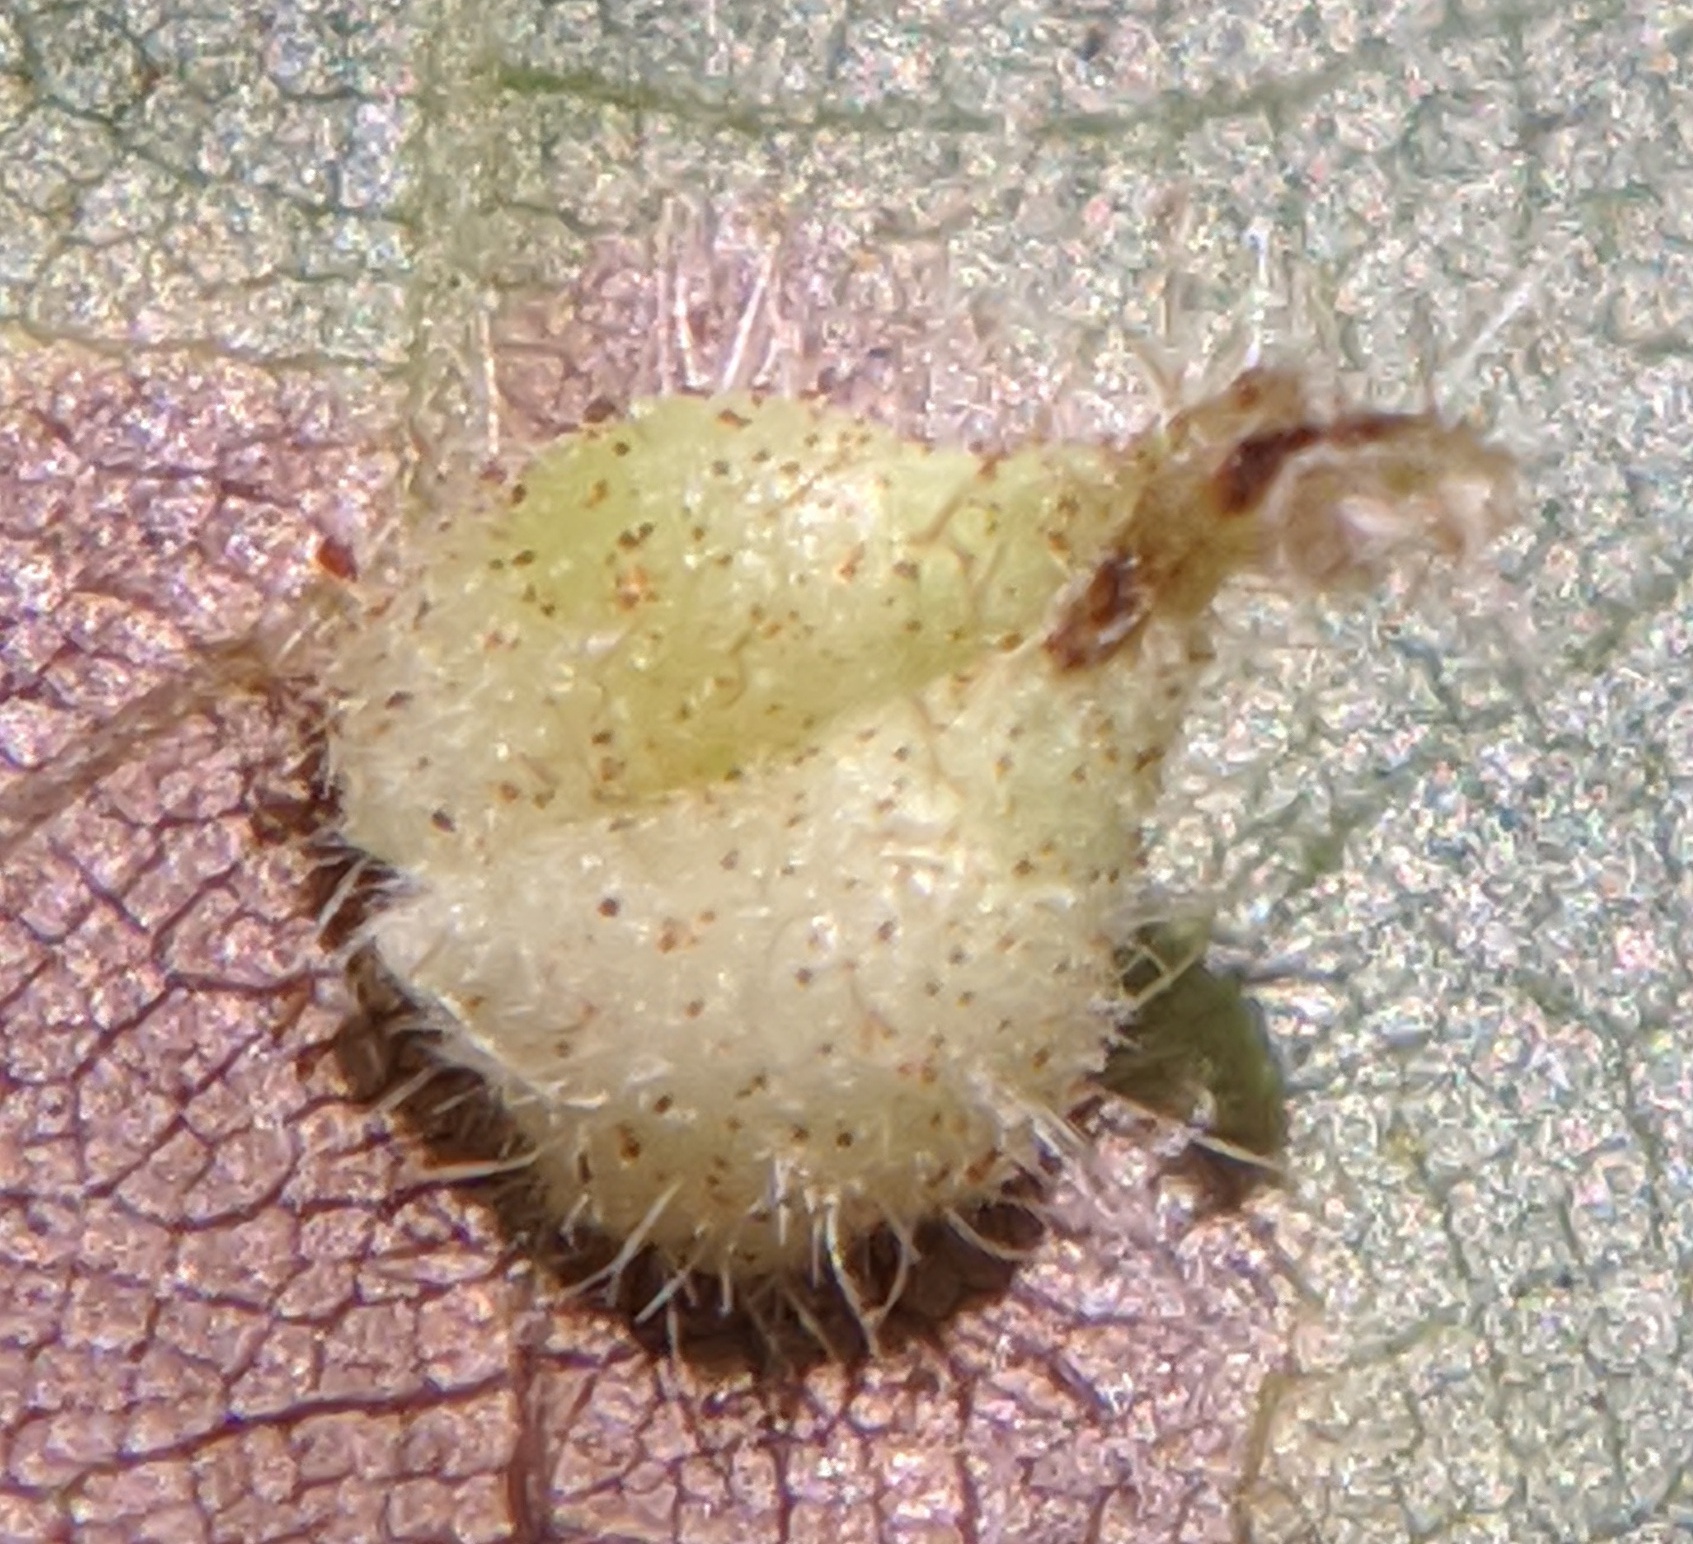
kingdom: Animalia
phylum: Arthropoda
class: Insecta
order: Diptera
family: Cecidomyiidae
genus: Caryomyia
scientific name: Caryomyia inclinata
